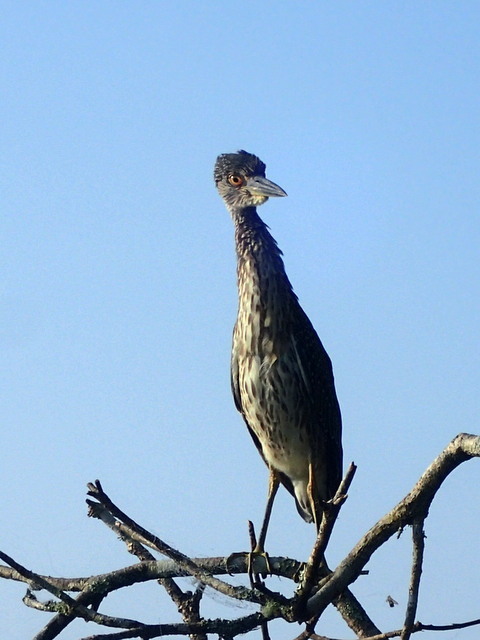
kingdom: Animalia
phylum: Chordata
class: Aves
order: Pelecaniformes
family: Ardeidae
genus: Nyctanassa
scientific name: Nyctanassa violacea
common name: Yellow-crowned night heron
